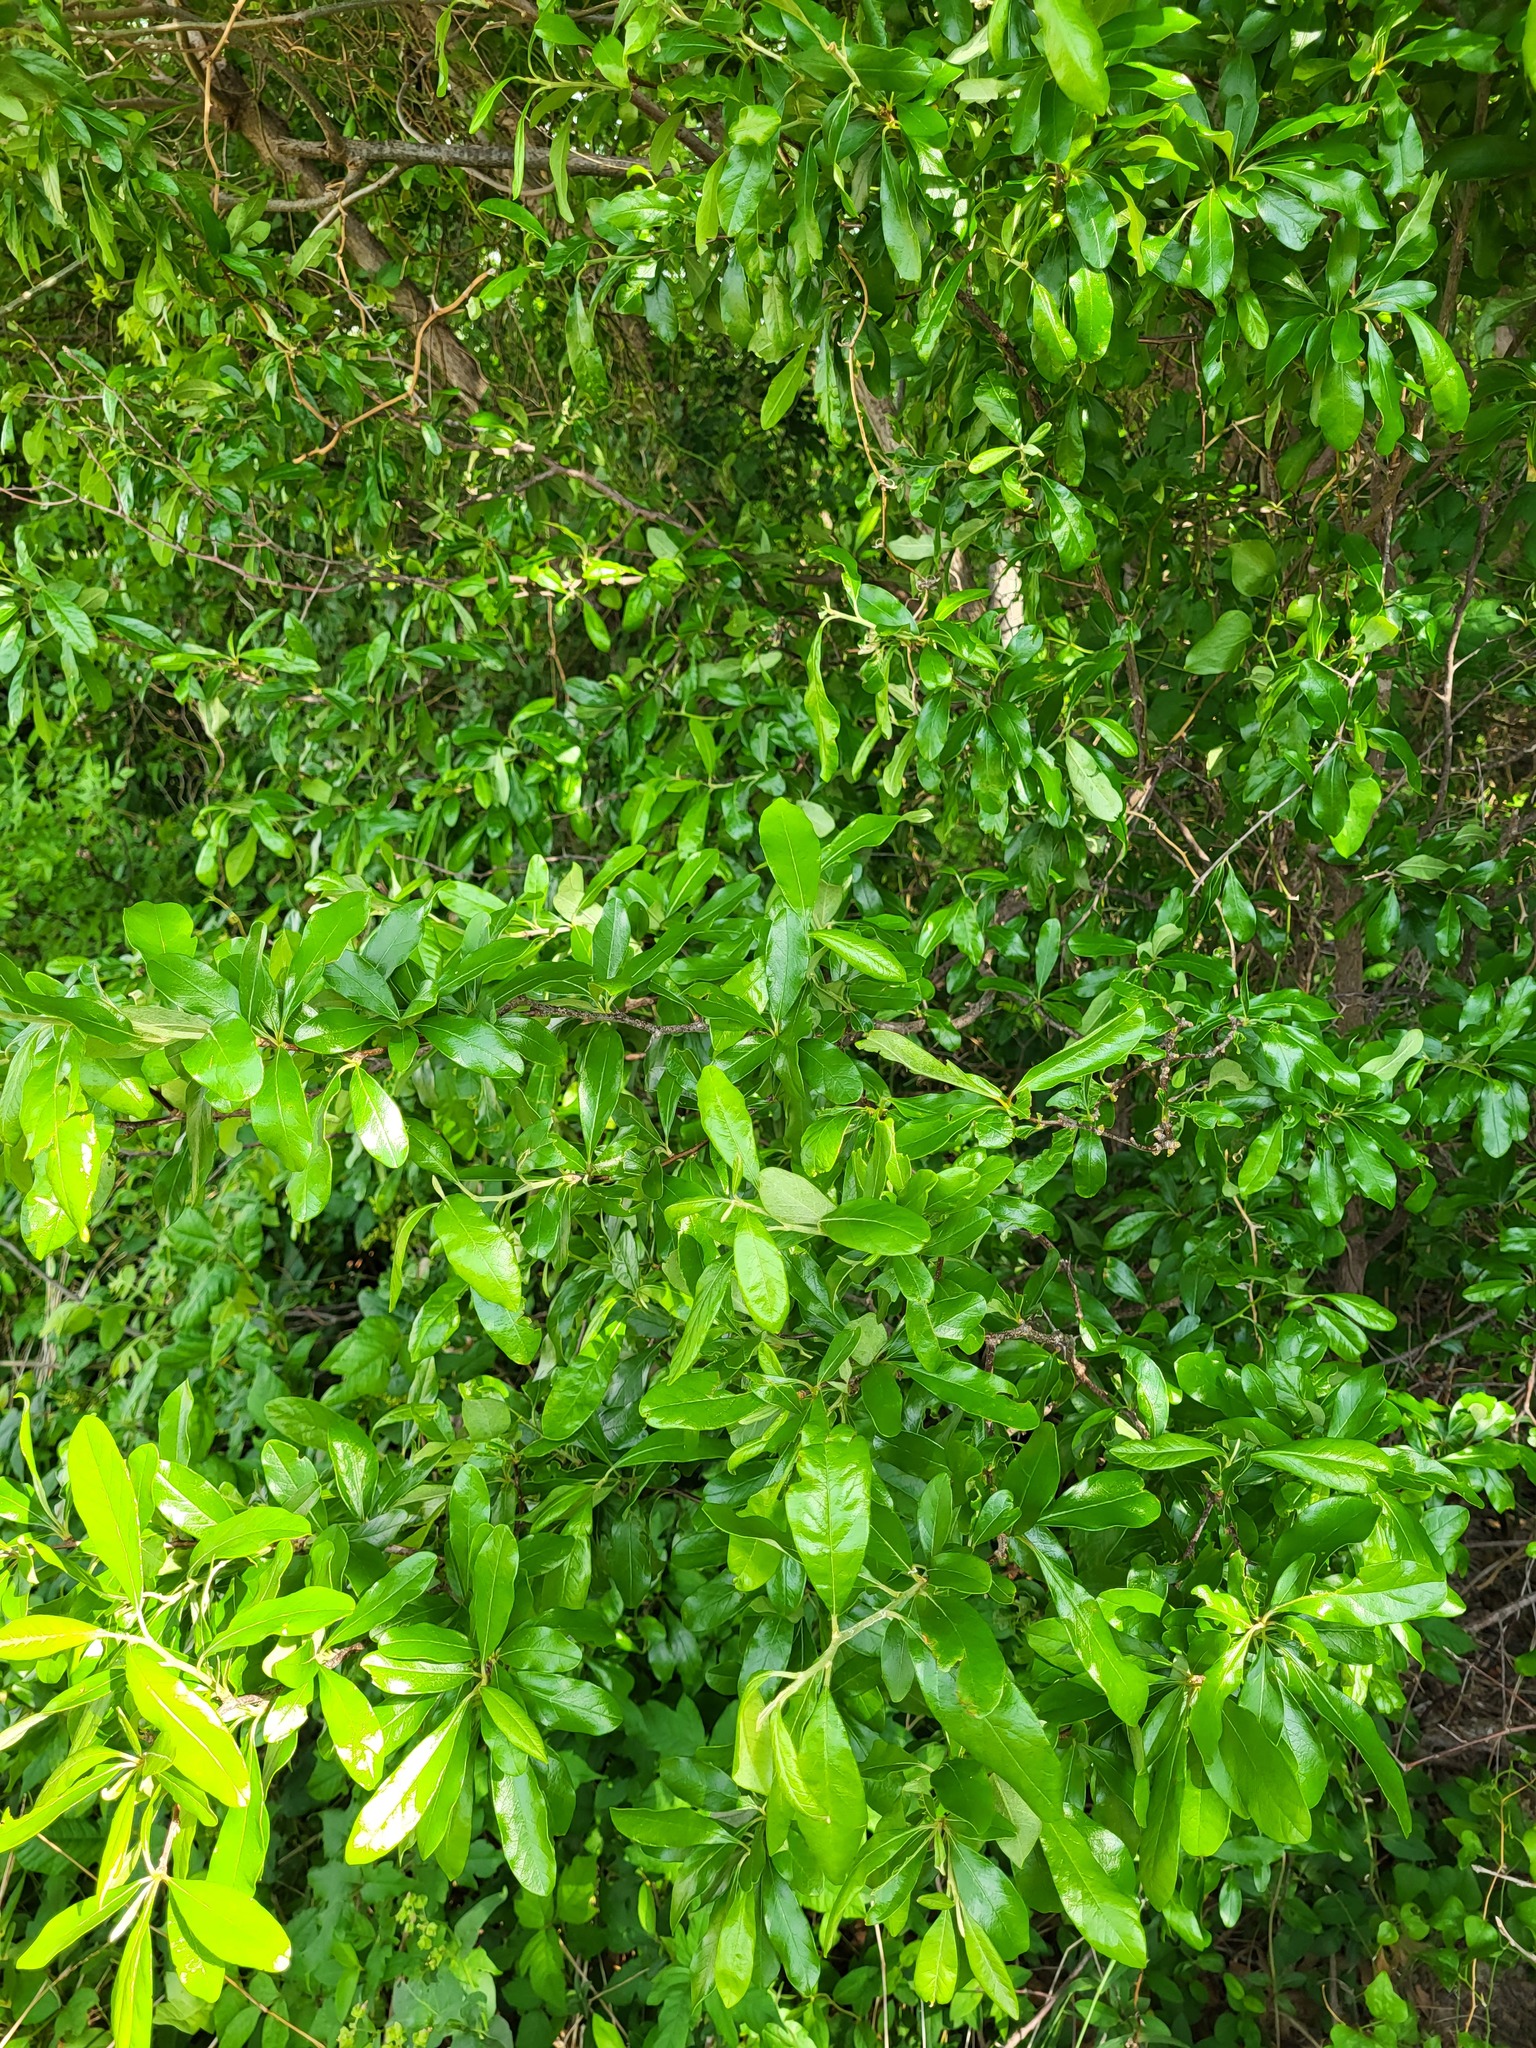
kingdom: Plantae
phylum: Tracheophyta
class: Magnoliopsida
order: Ericales
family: Sapotaceae
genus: Sideroxylon
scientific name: Sideroxylon lanuginosum
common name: Chittamwood
